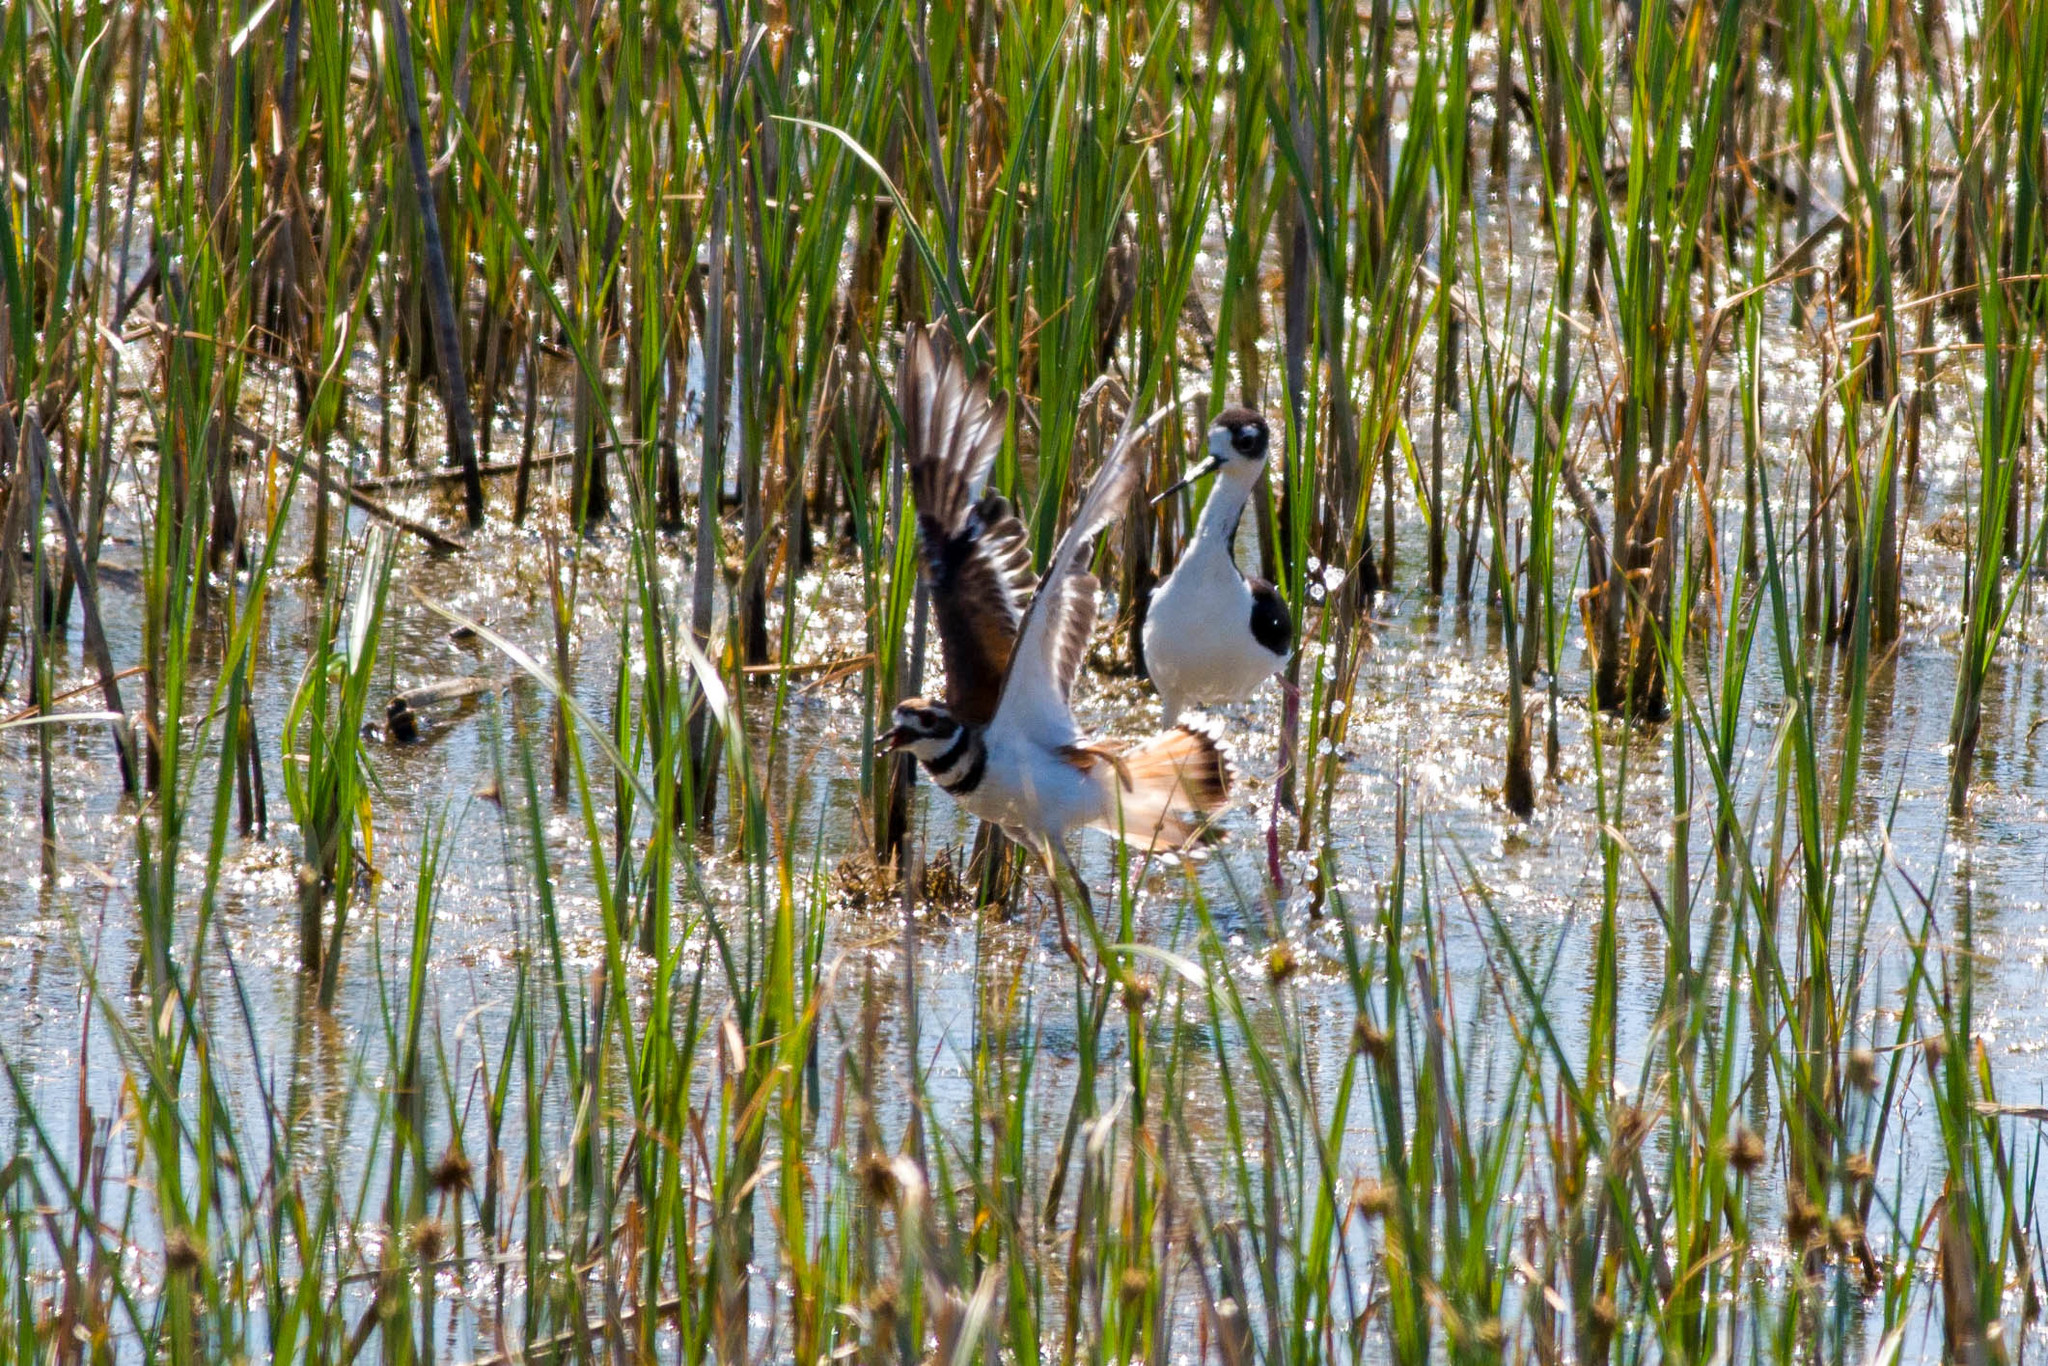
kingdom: Animalia
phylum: Chordata
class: Aves
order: Charadriiformes
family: Charadriidae
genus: Charadrius
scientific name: Charadrius vociferus
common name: Killdeer
